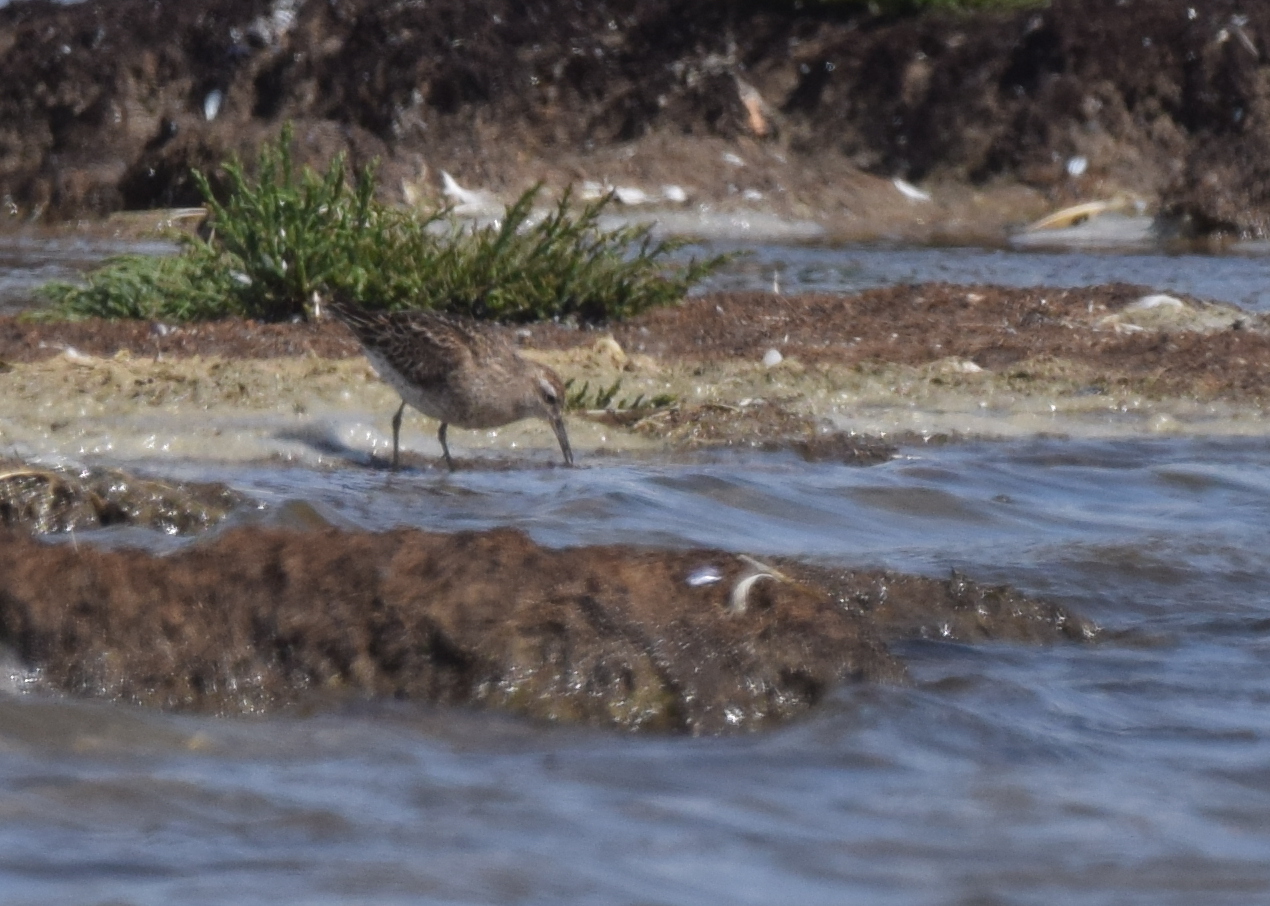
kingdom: Animalia
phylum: Chordata
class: Aves
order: Charadriiformes
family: Scolopacidae
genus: Calidris
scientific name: Calidris acuminata
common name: Sharp-tailed sandpiper
